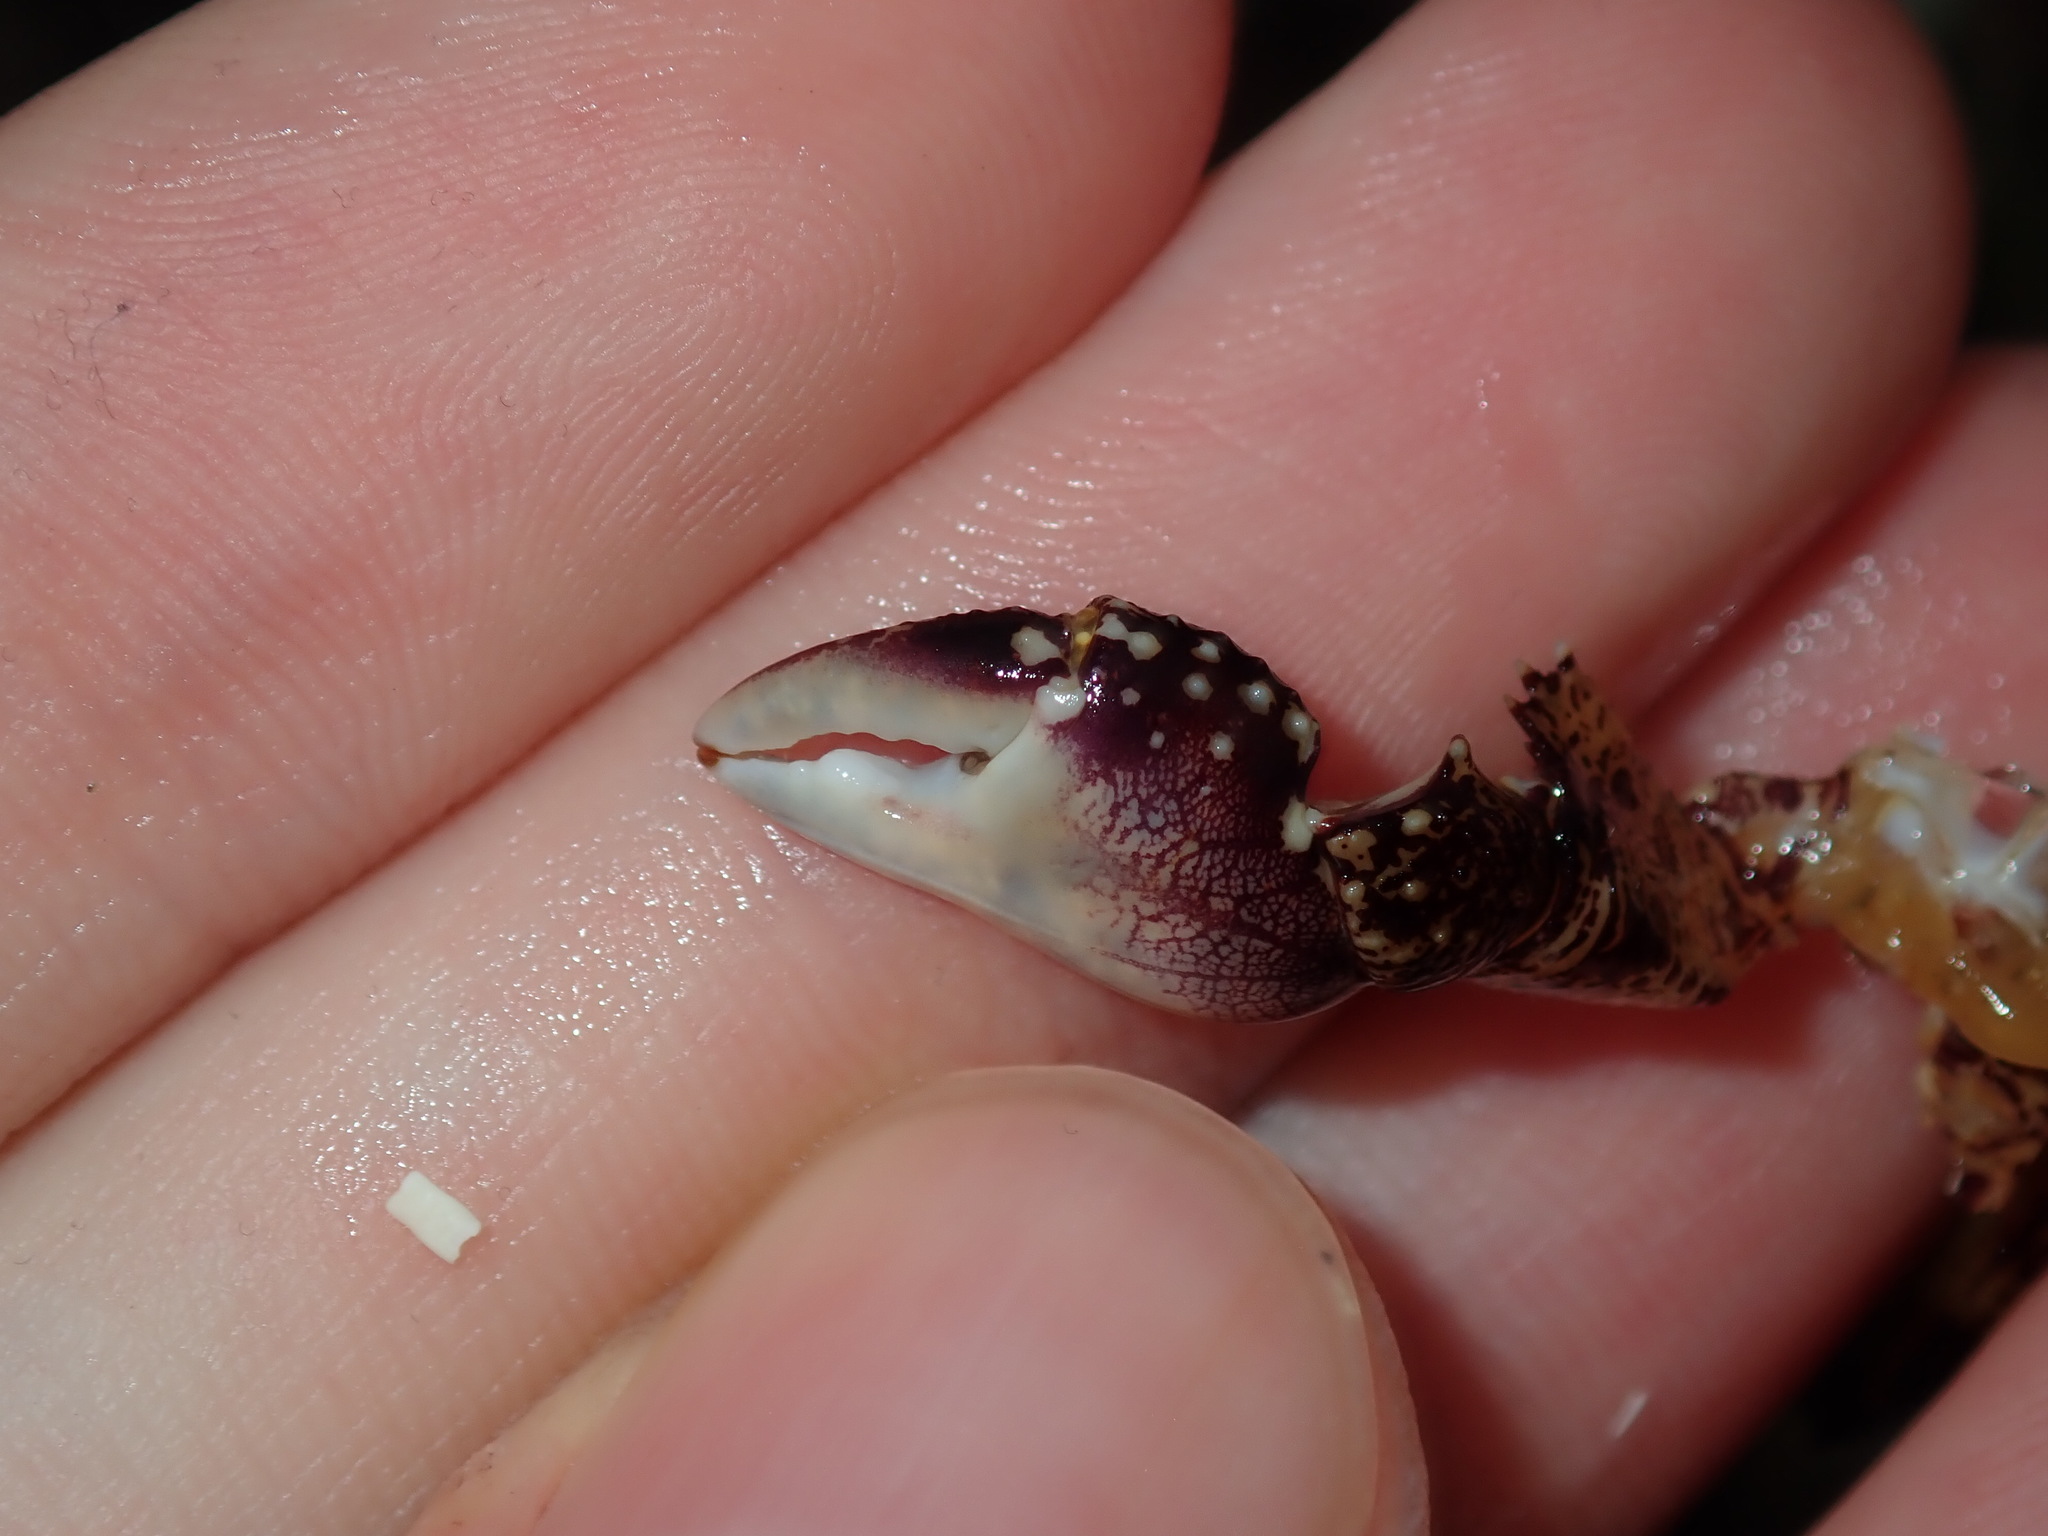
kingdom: Animalia
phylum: Arthropoda
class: Malacostraca
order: Decapoda
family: Grapsidae
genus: Leptograpsus
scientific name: Leptograpsus variegatus
